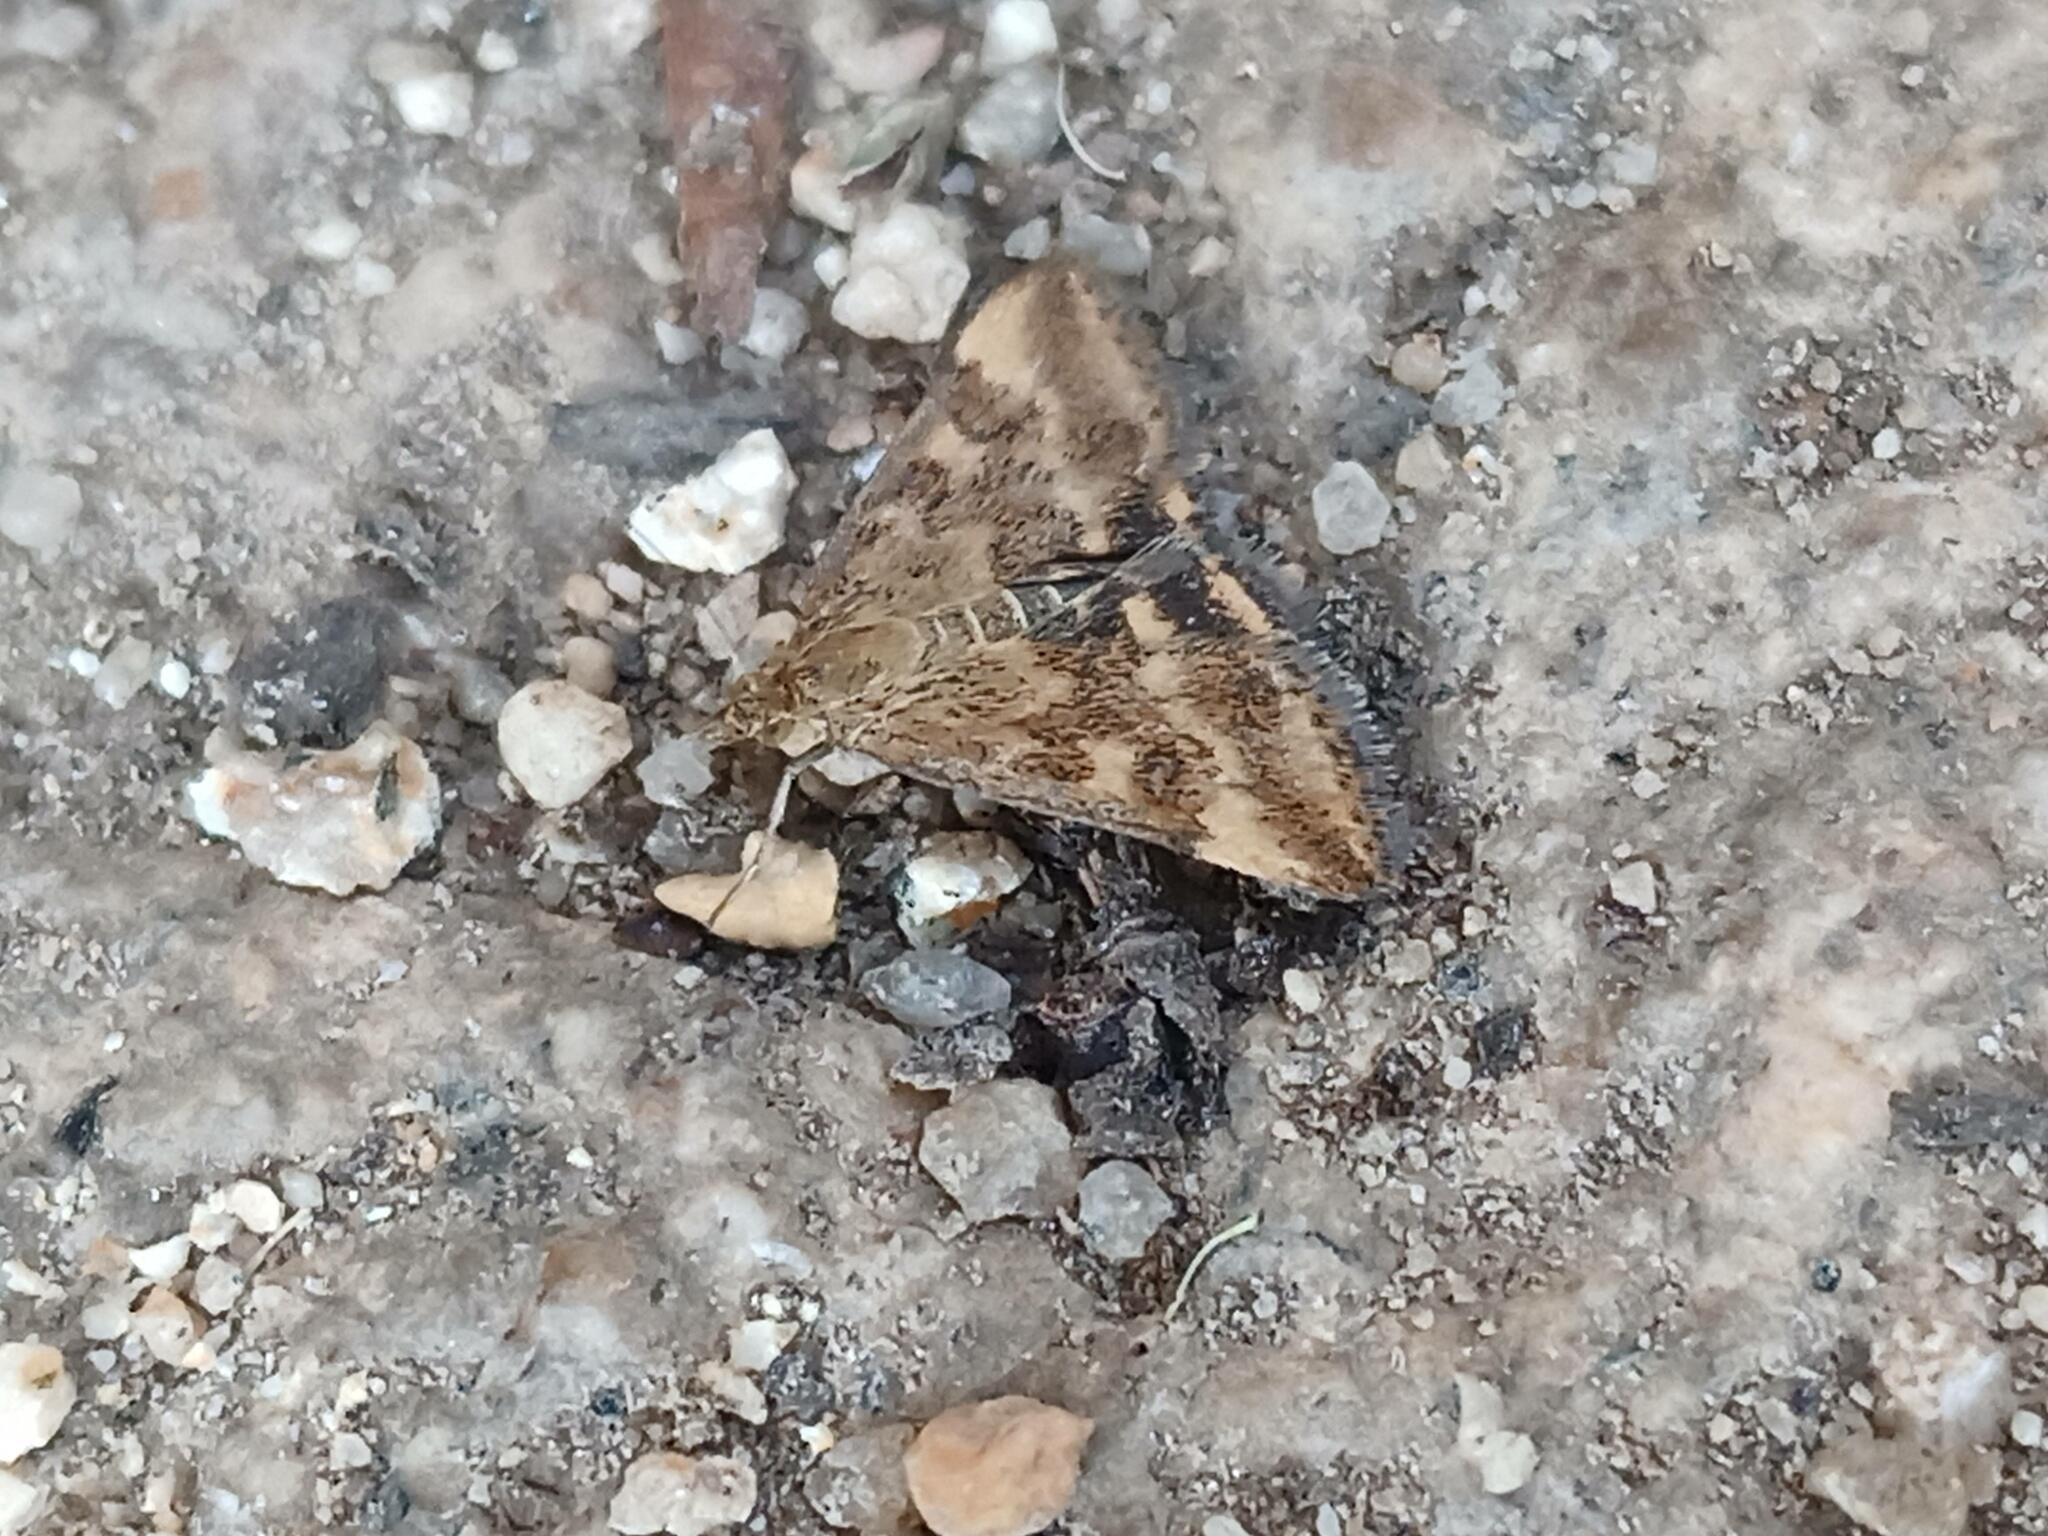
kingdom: Animalia
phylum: Arthropoda
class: Insecta
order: Lepidoptera
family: Crambidae
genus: Pyrausta
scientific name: Pyrausta despicata
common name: Straw-barred pearl
